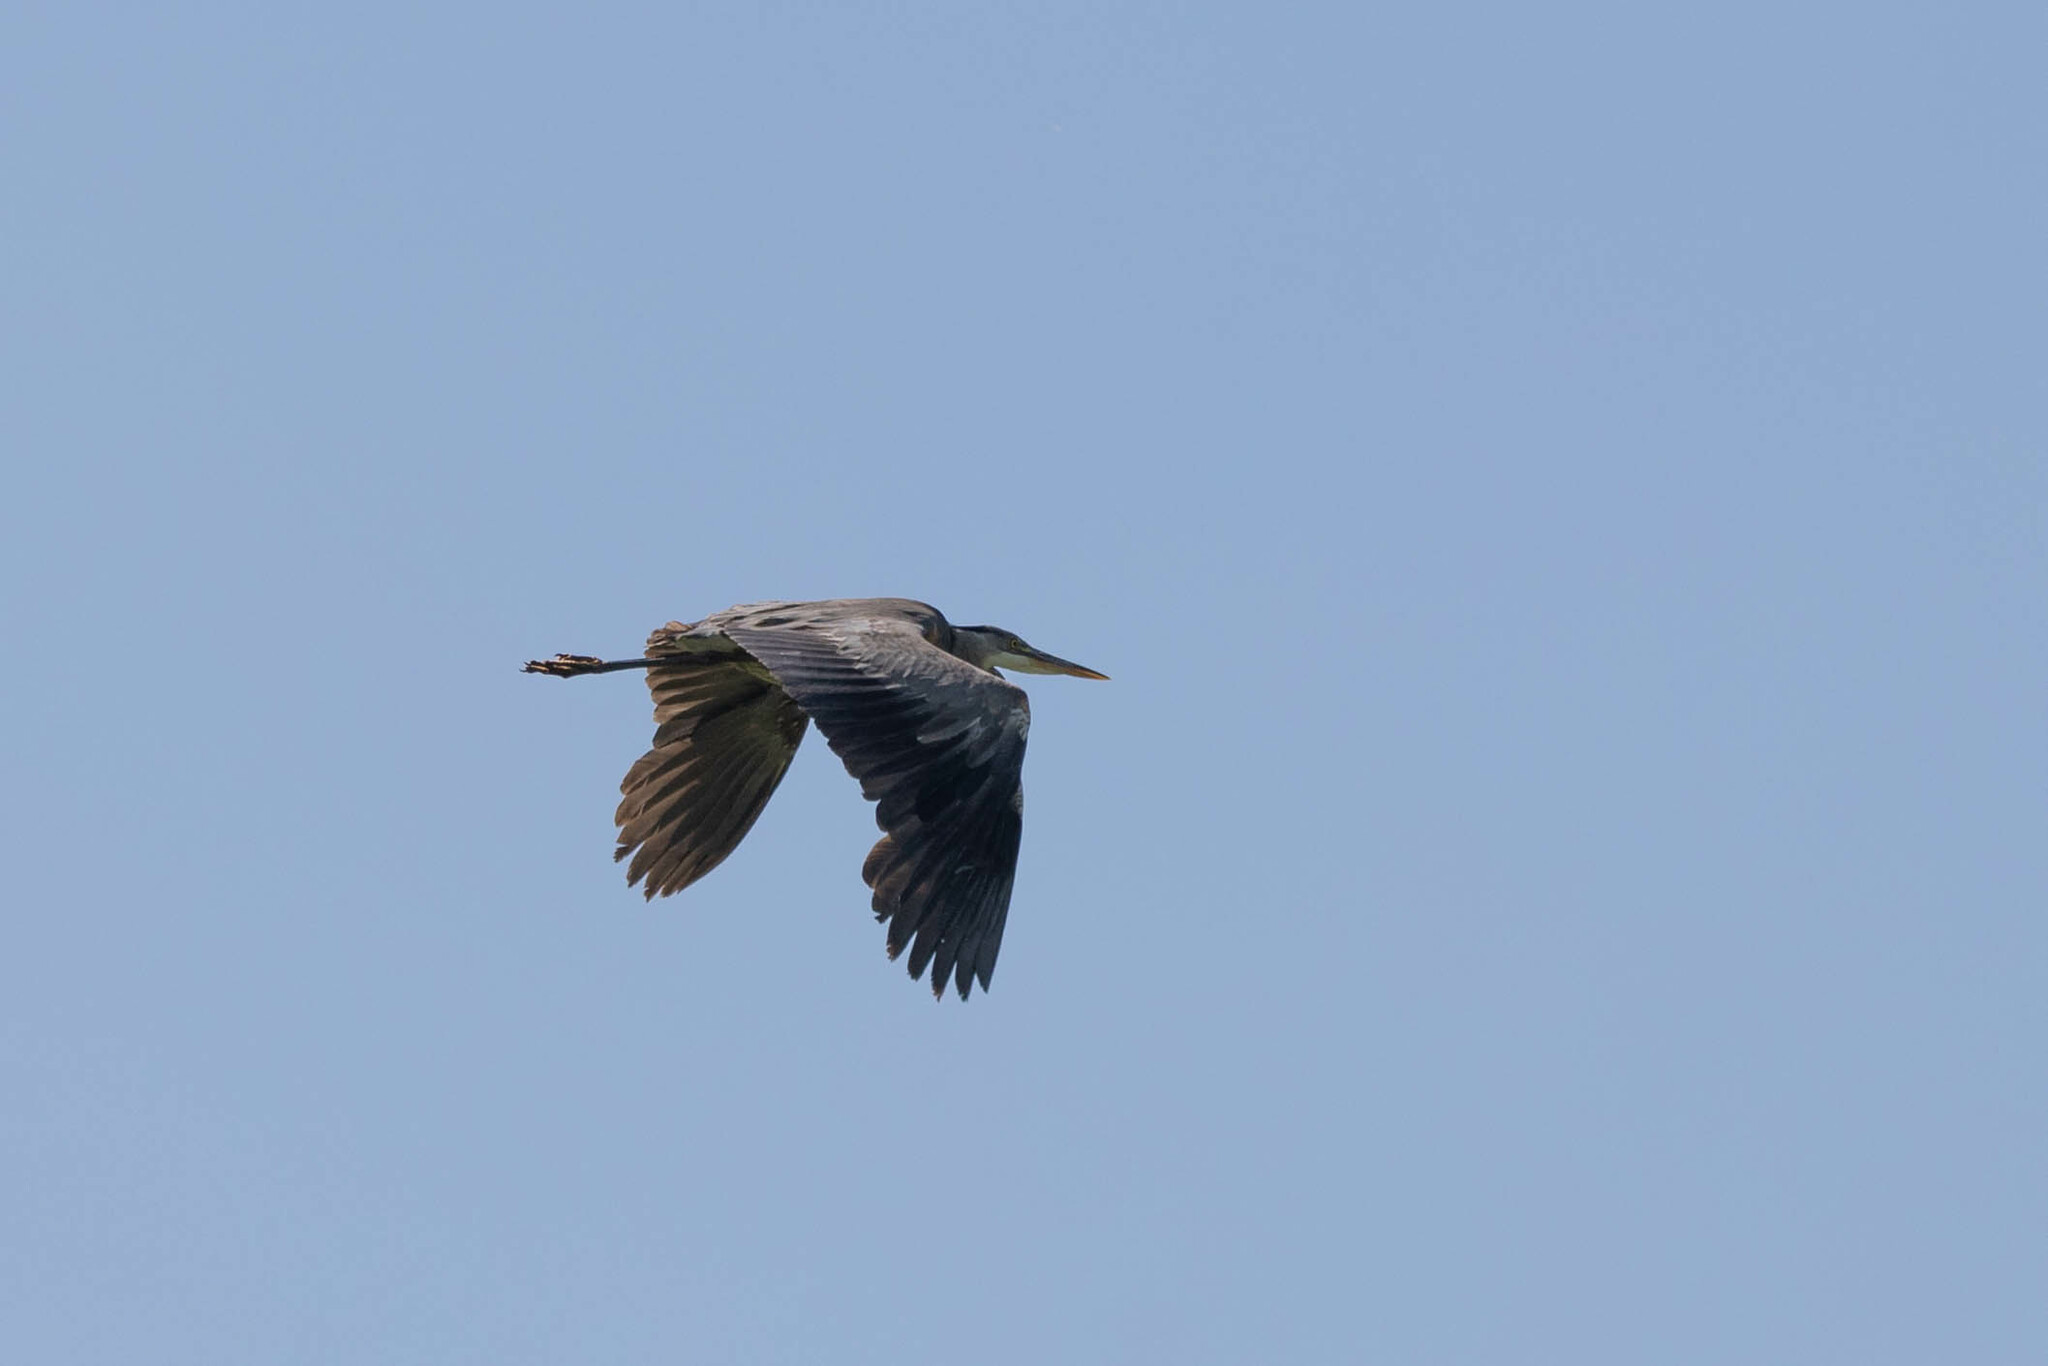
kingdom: Animalia
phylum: Chordata
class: Aves
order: Pelecaniformes
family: Ardeidae
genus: Ardea
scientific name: Ardea herodias
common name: Great blue heron
